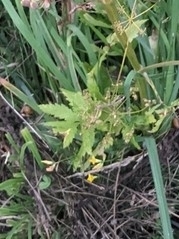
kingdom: Plantae
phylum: Tracheophyta
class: Magnoliopsida
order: Apiales
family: Apiaceae
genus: Pastinaca
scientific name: Pastinaca sativa
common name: Wild parsnip
